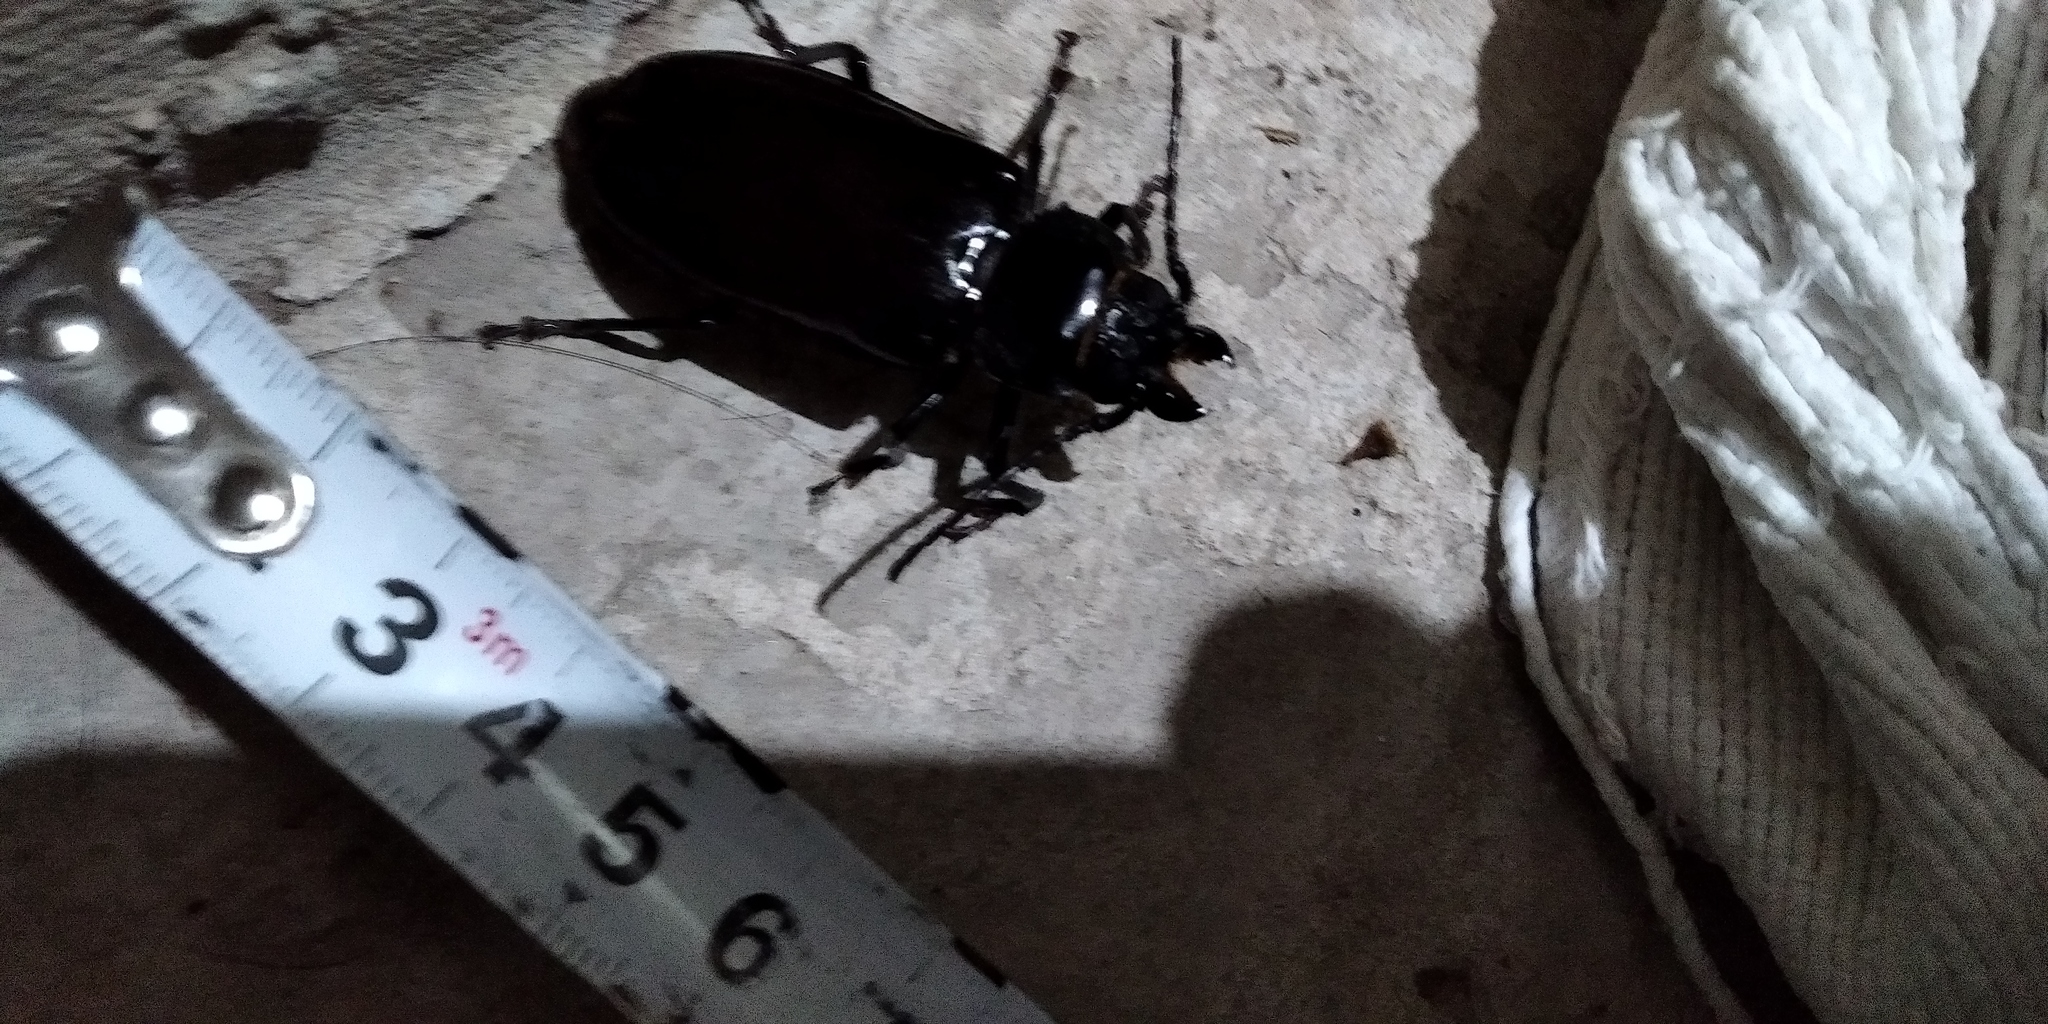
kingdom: Animalia
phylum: Arthropoda
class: Insecta
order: Coleoptera
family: Cerambycidae
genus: Mallodon
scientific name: Mallodon dasystomum
